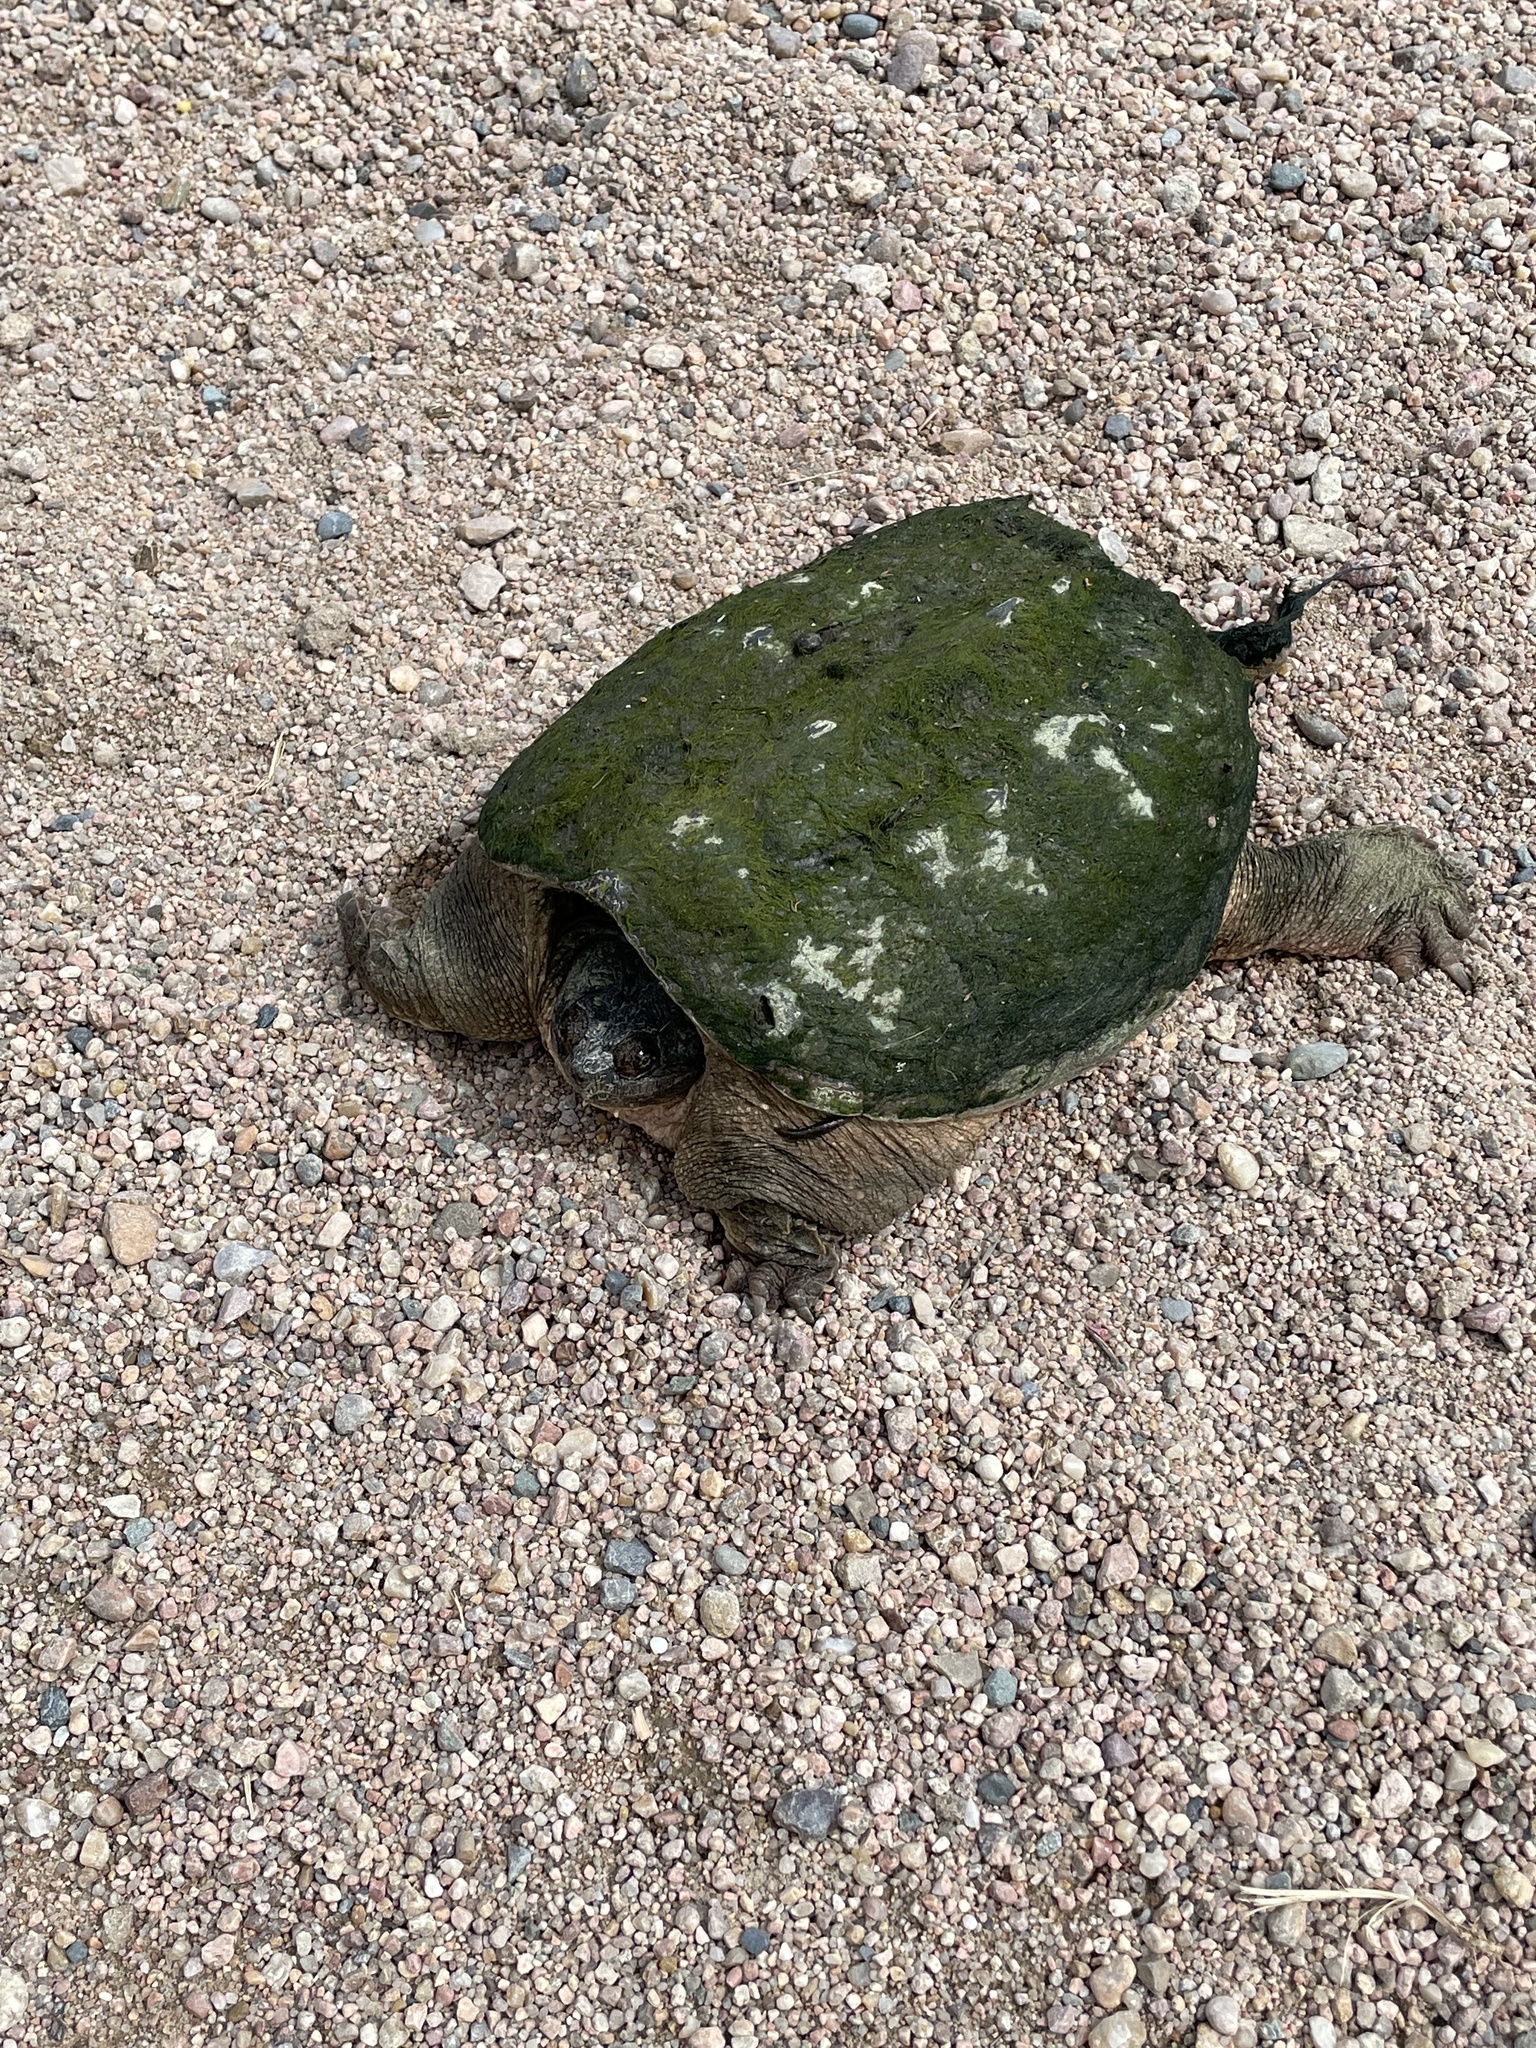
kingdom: Animalia
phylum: Chordata
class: Testudines
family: Chelydridae
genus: Chelydra
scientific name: Chelydra serpentina
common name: Common snapping turtle
